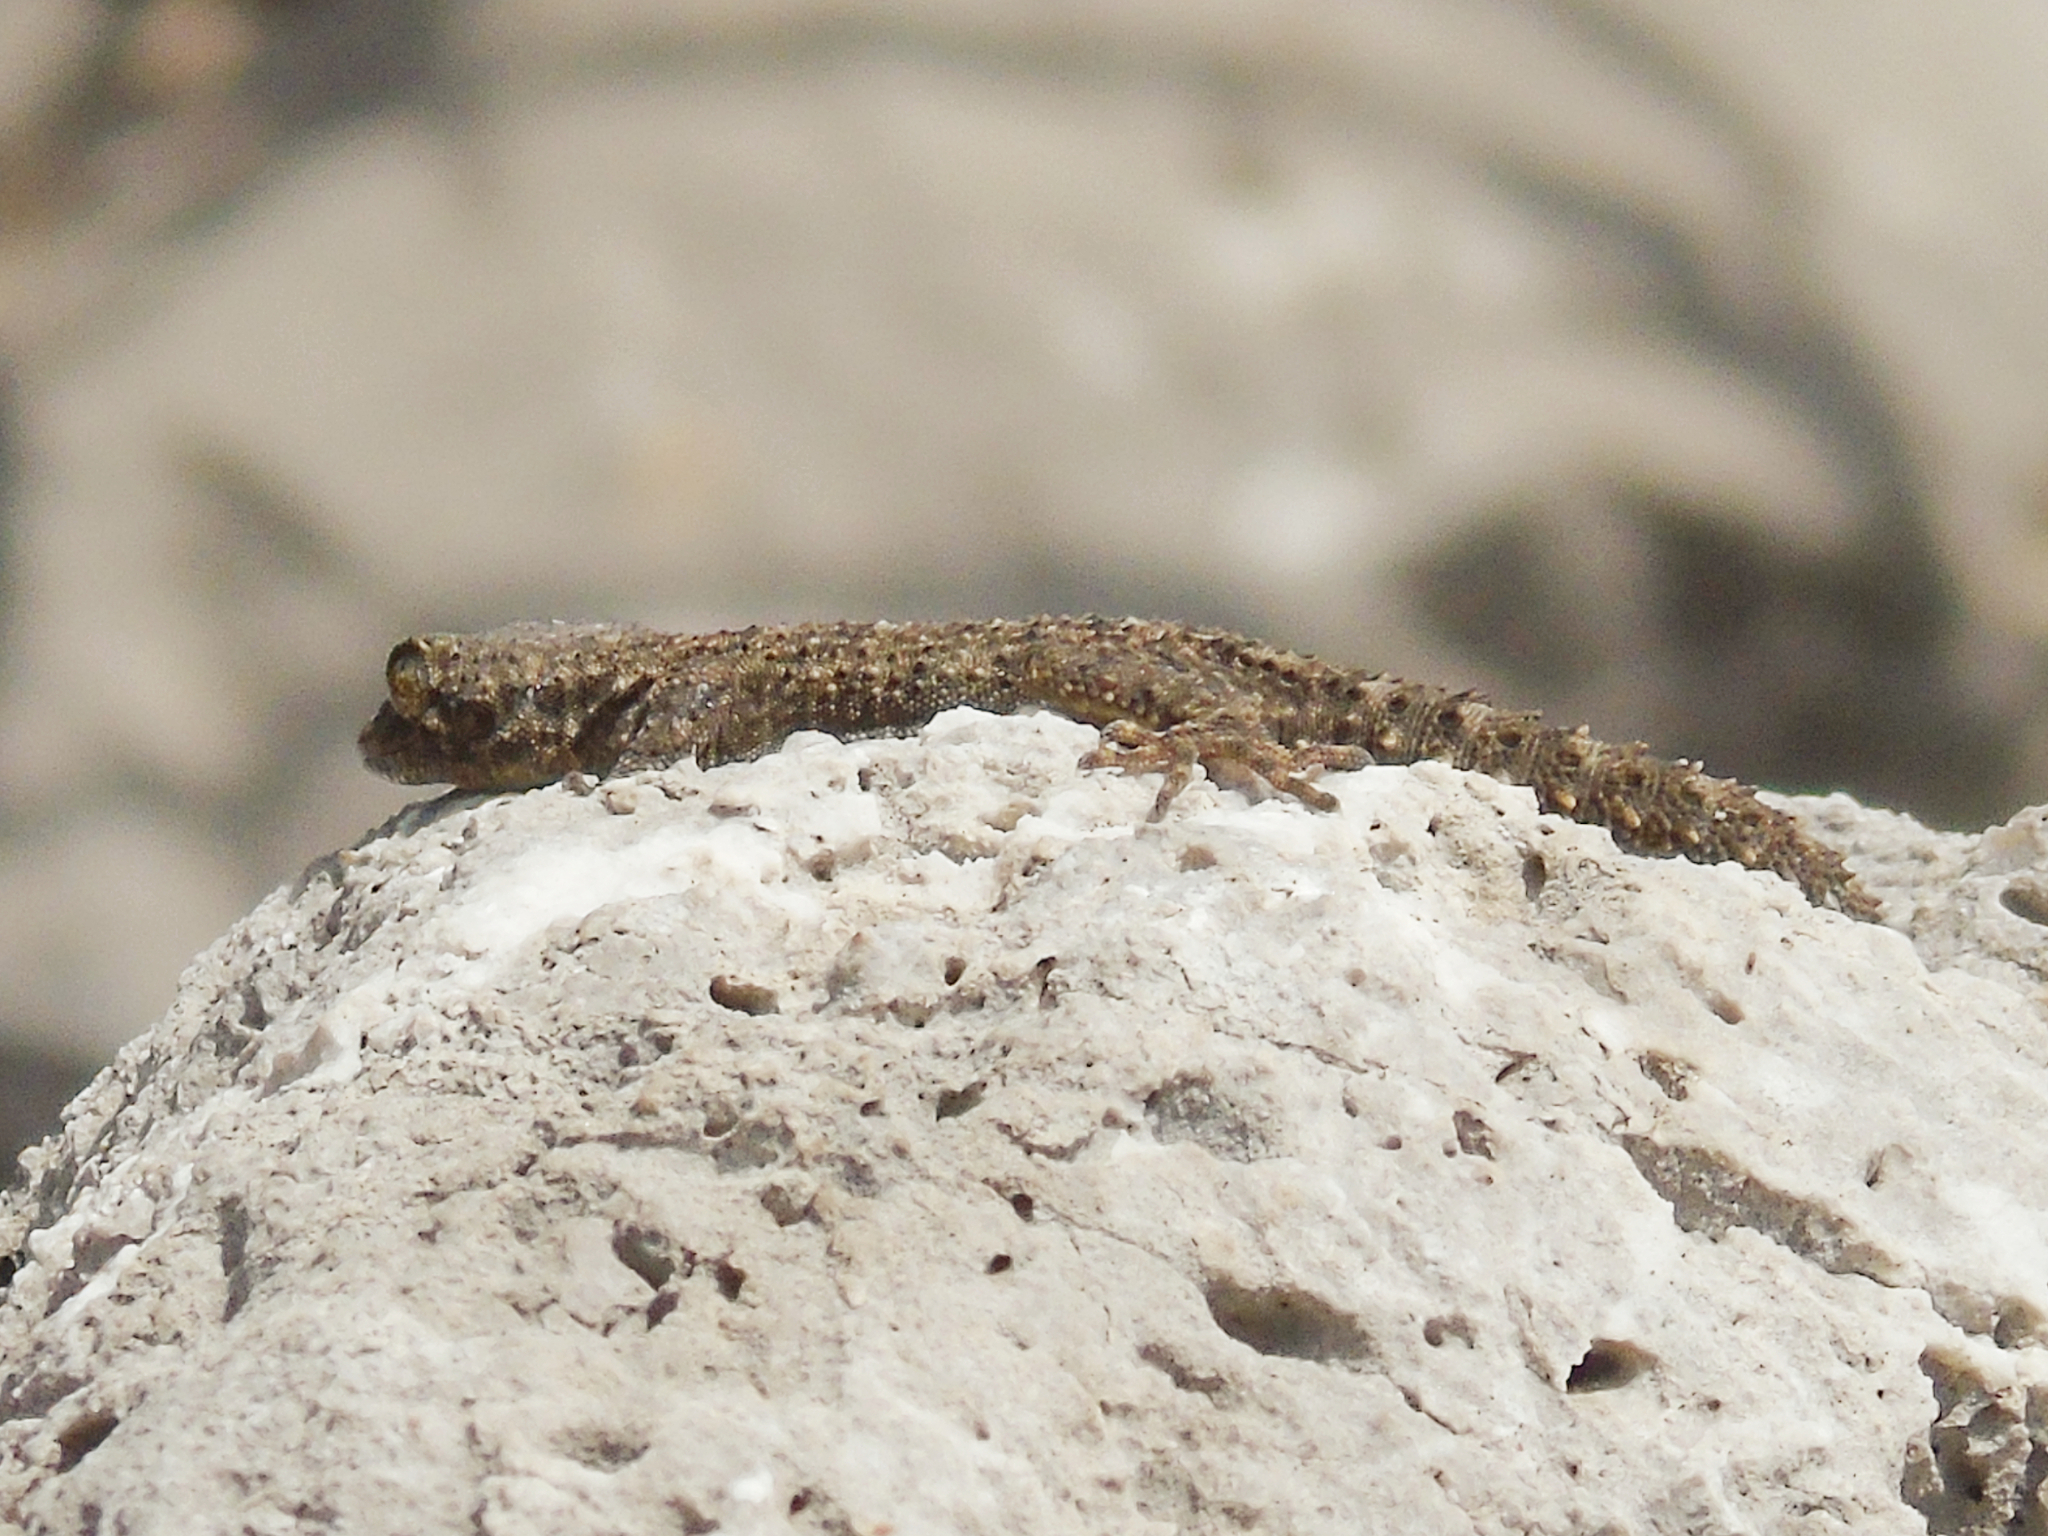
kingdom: Animalia
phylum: Chordata
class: Squamata
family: Gekkonidae
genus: Mediodactylus
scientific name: Mediodactylus kotschyi
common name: Kotschy's gecko
